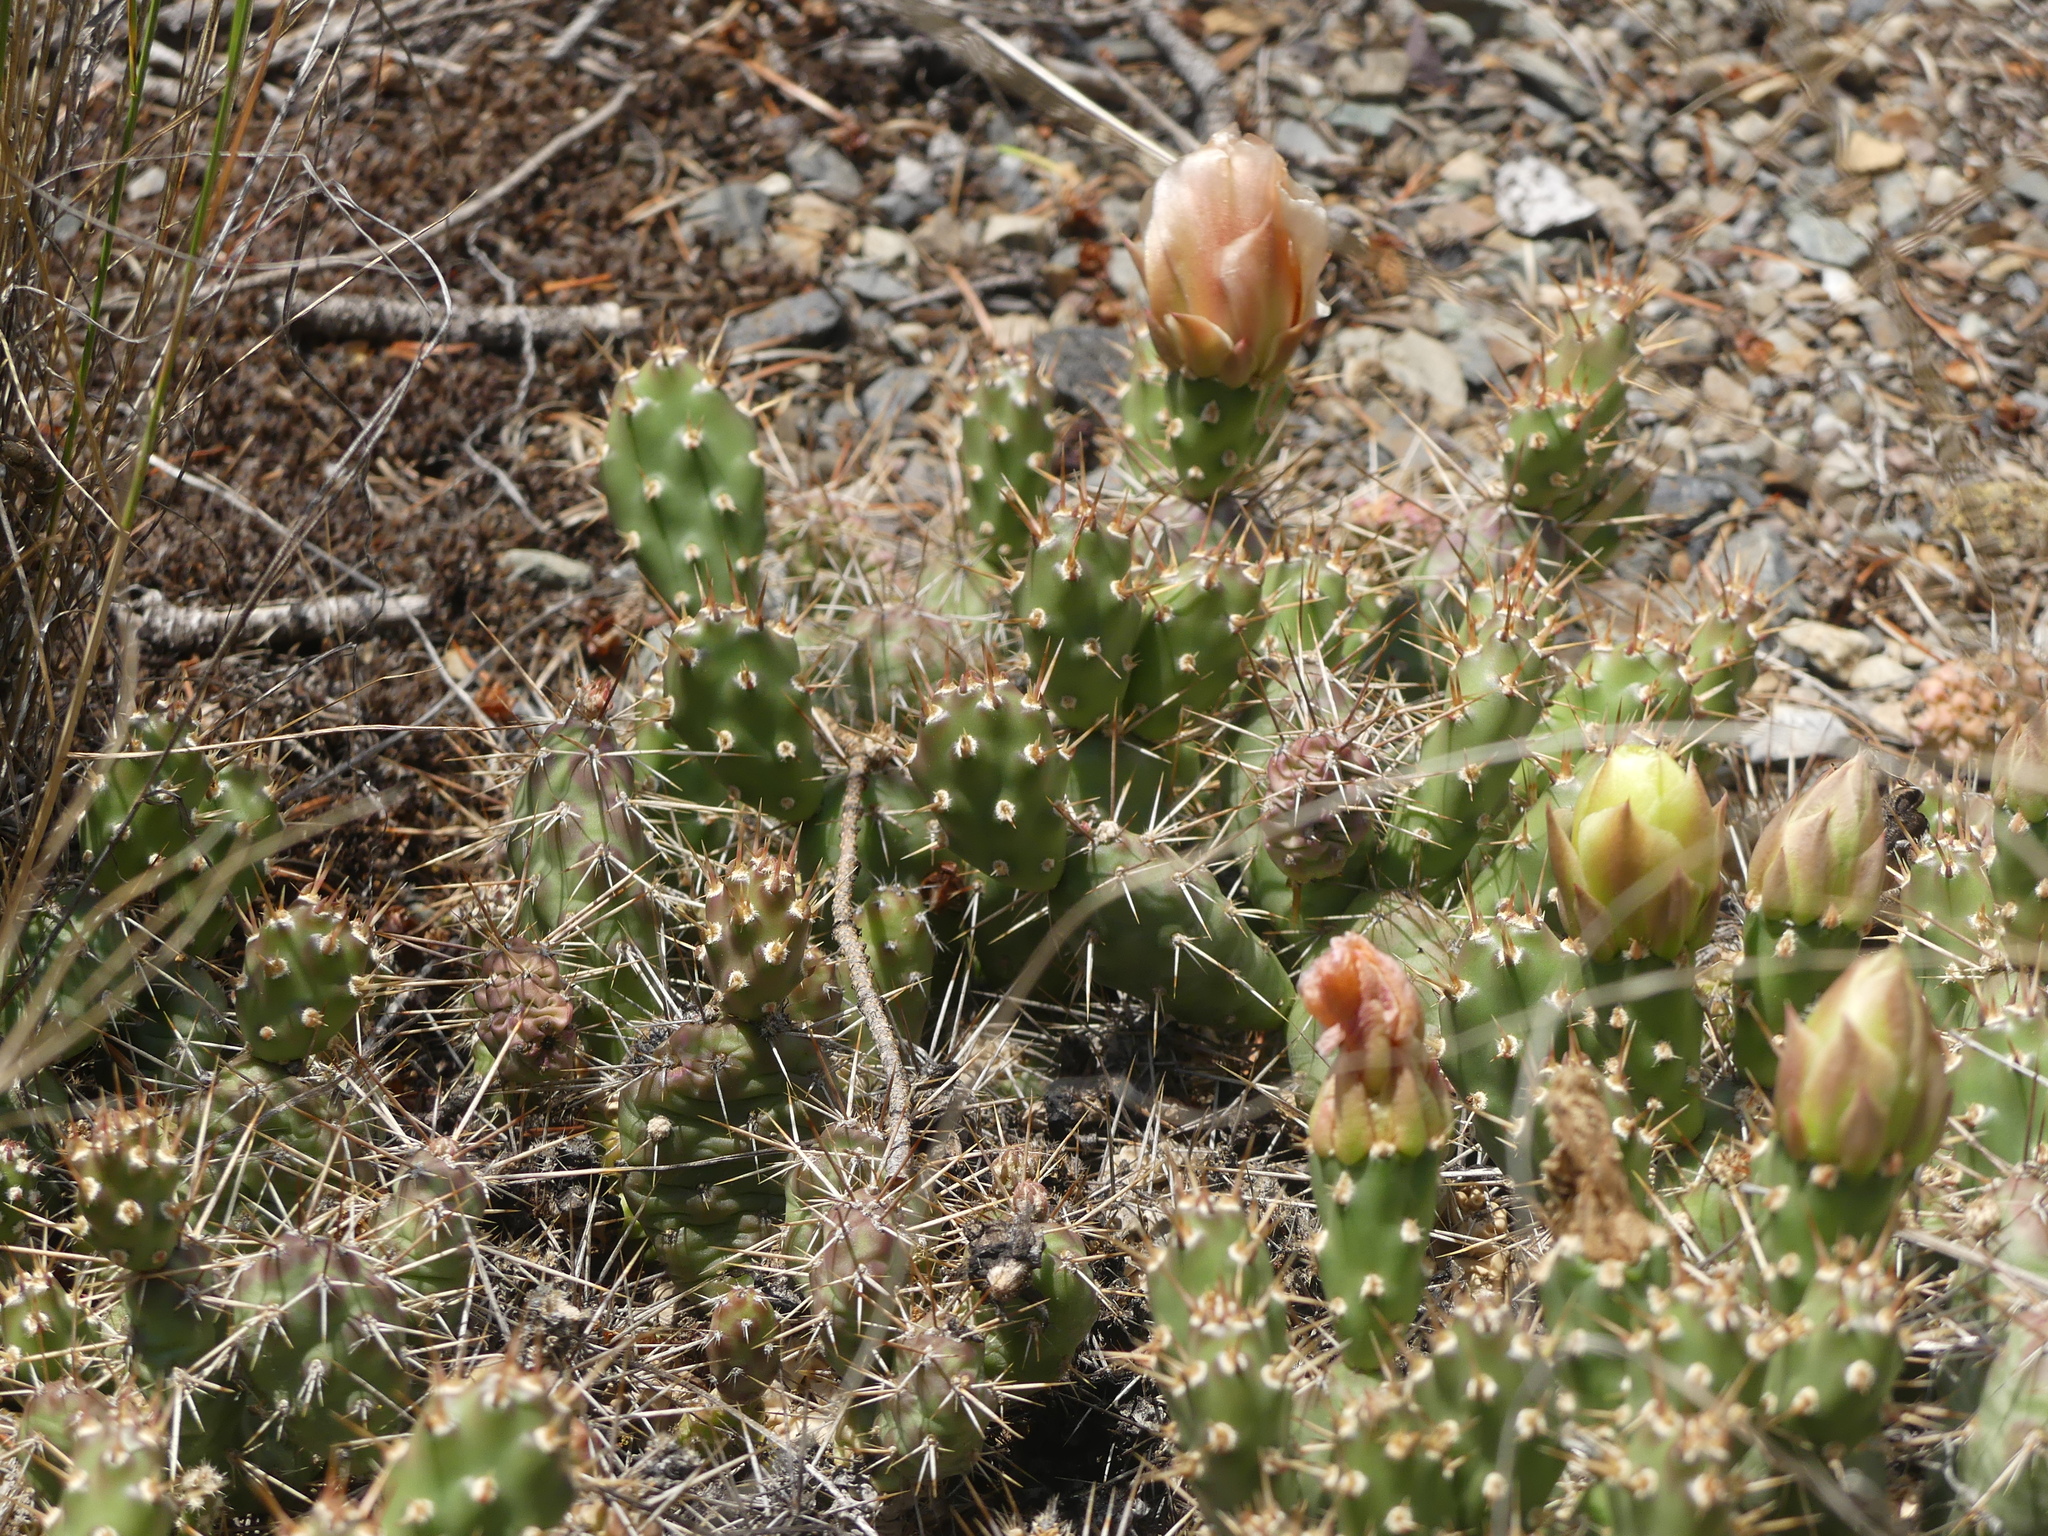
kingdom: Plantae
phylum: Tracheophyta
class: Magnoliopsida
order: Caryophyllales
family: Cactaceae
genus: Opuntia
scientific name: Opuntia fragilis
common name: Brittle cactus
